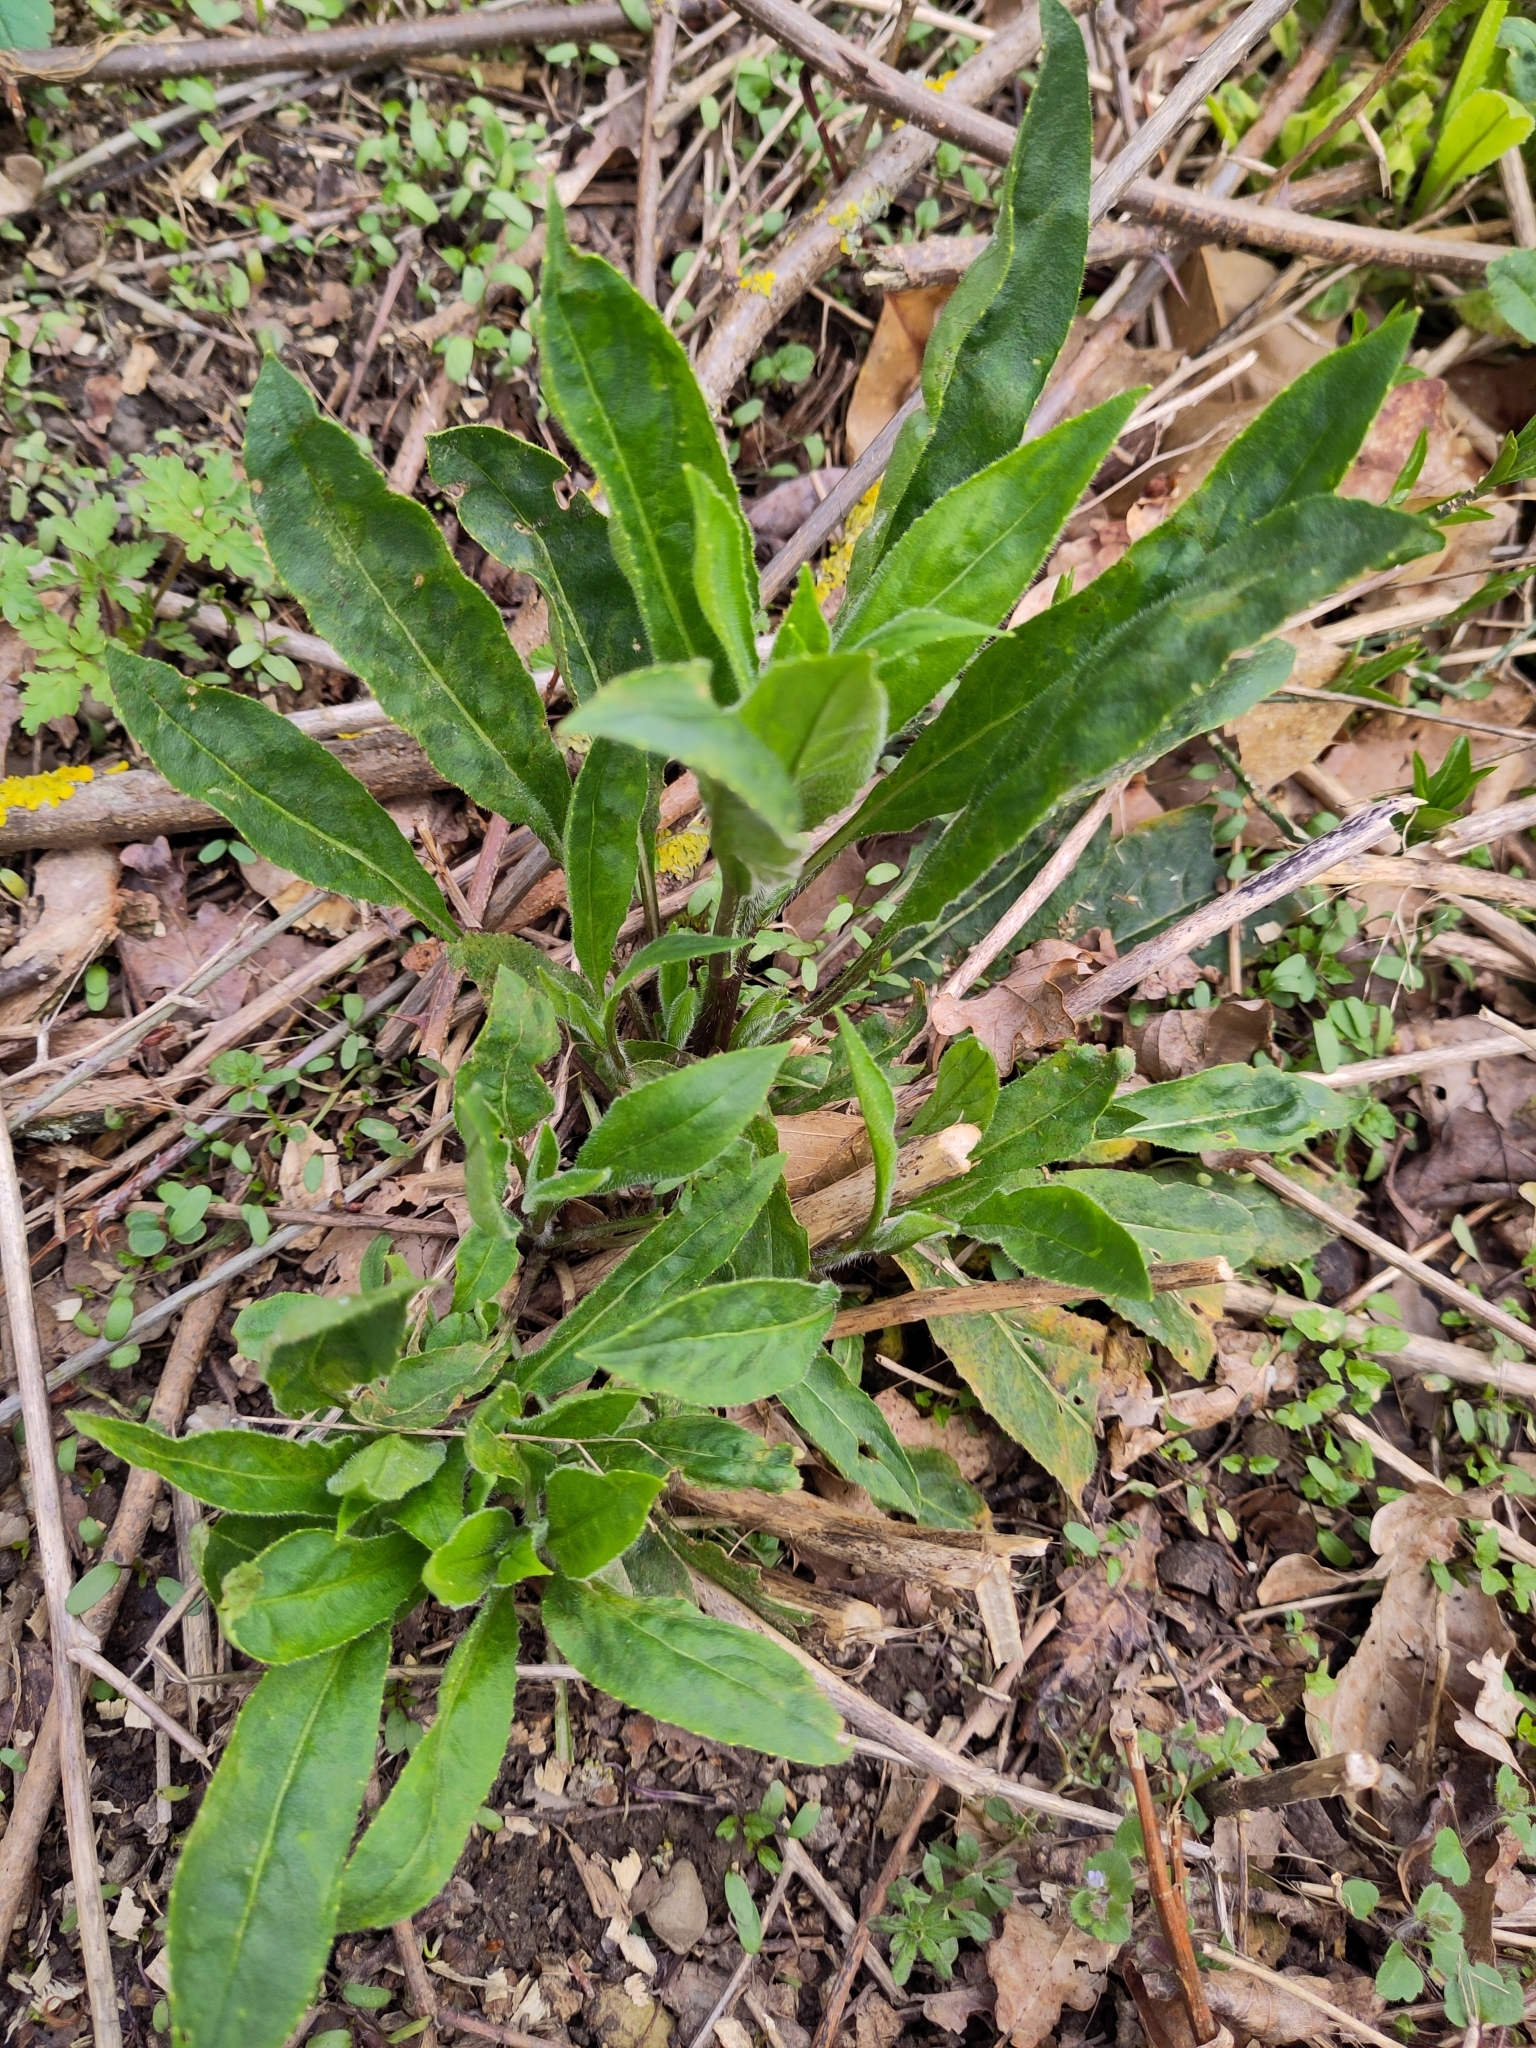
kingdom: Plantae
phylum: Tracheophyta
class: Magnoliopsida
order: Brassicales
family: Brassicaceae
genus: Hesperis
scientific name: Hesperis matronalis
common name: Dame's-violet
